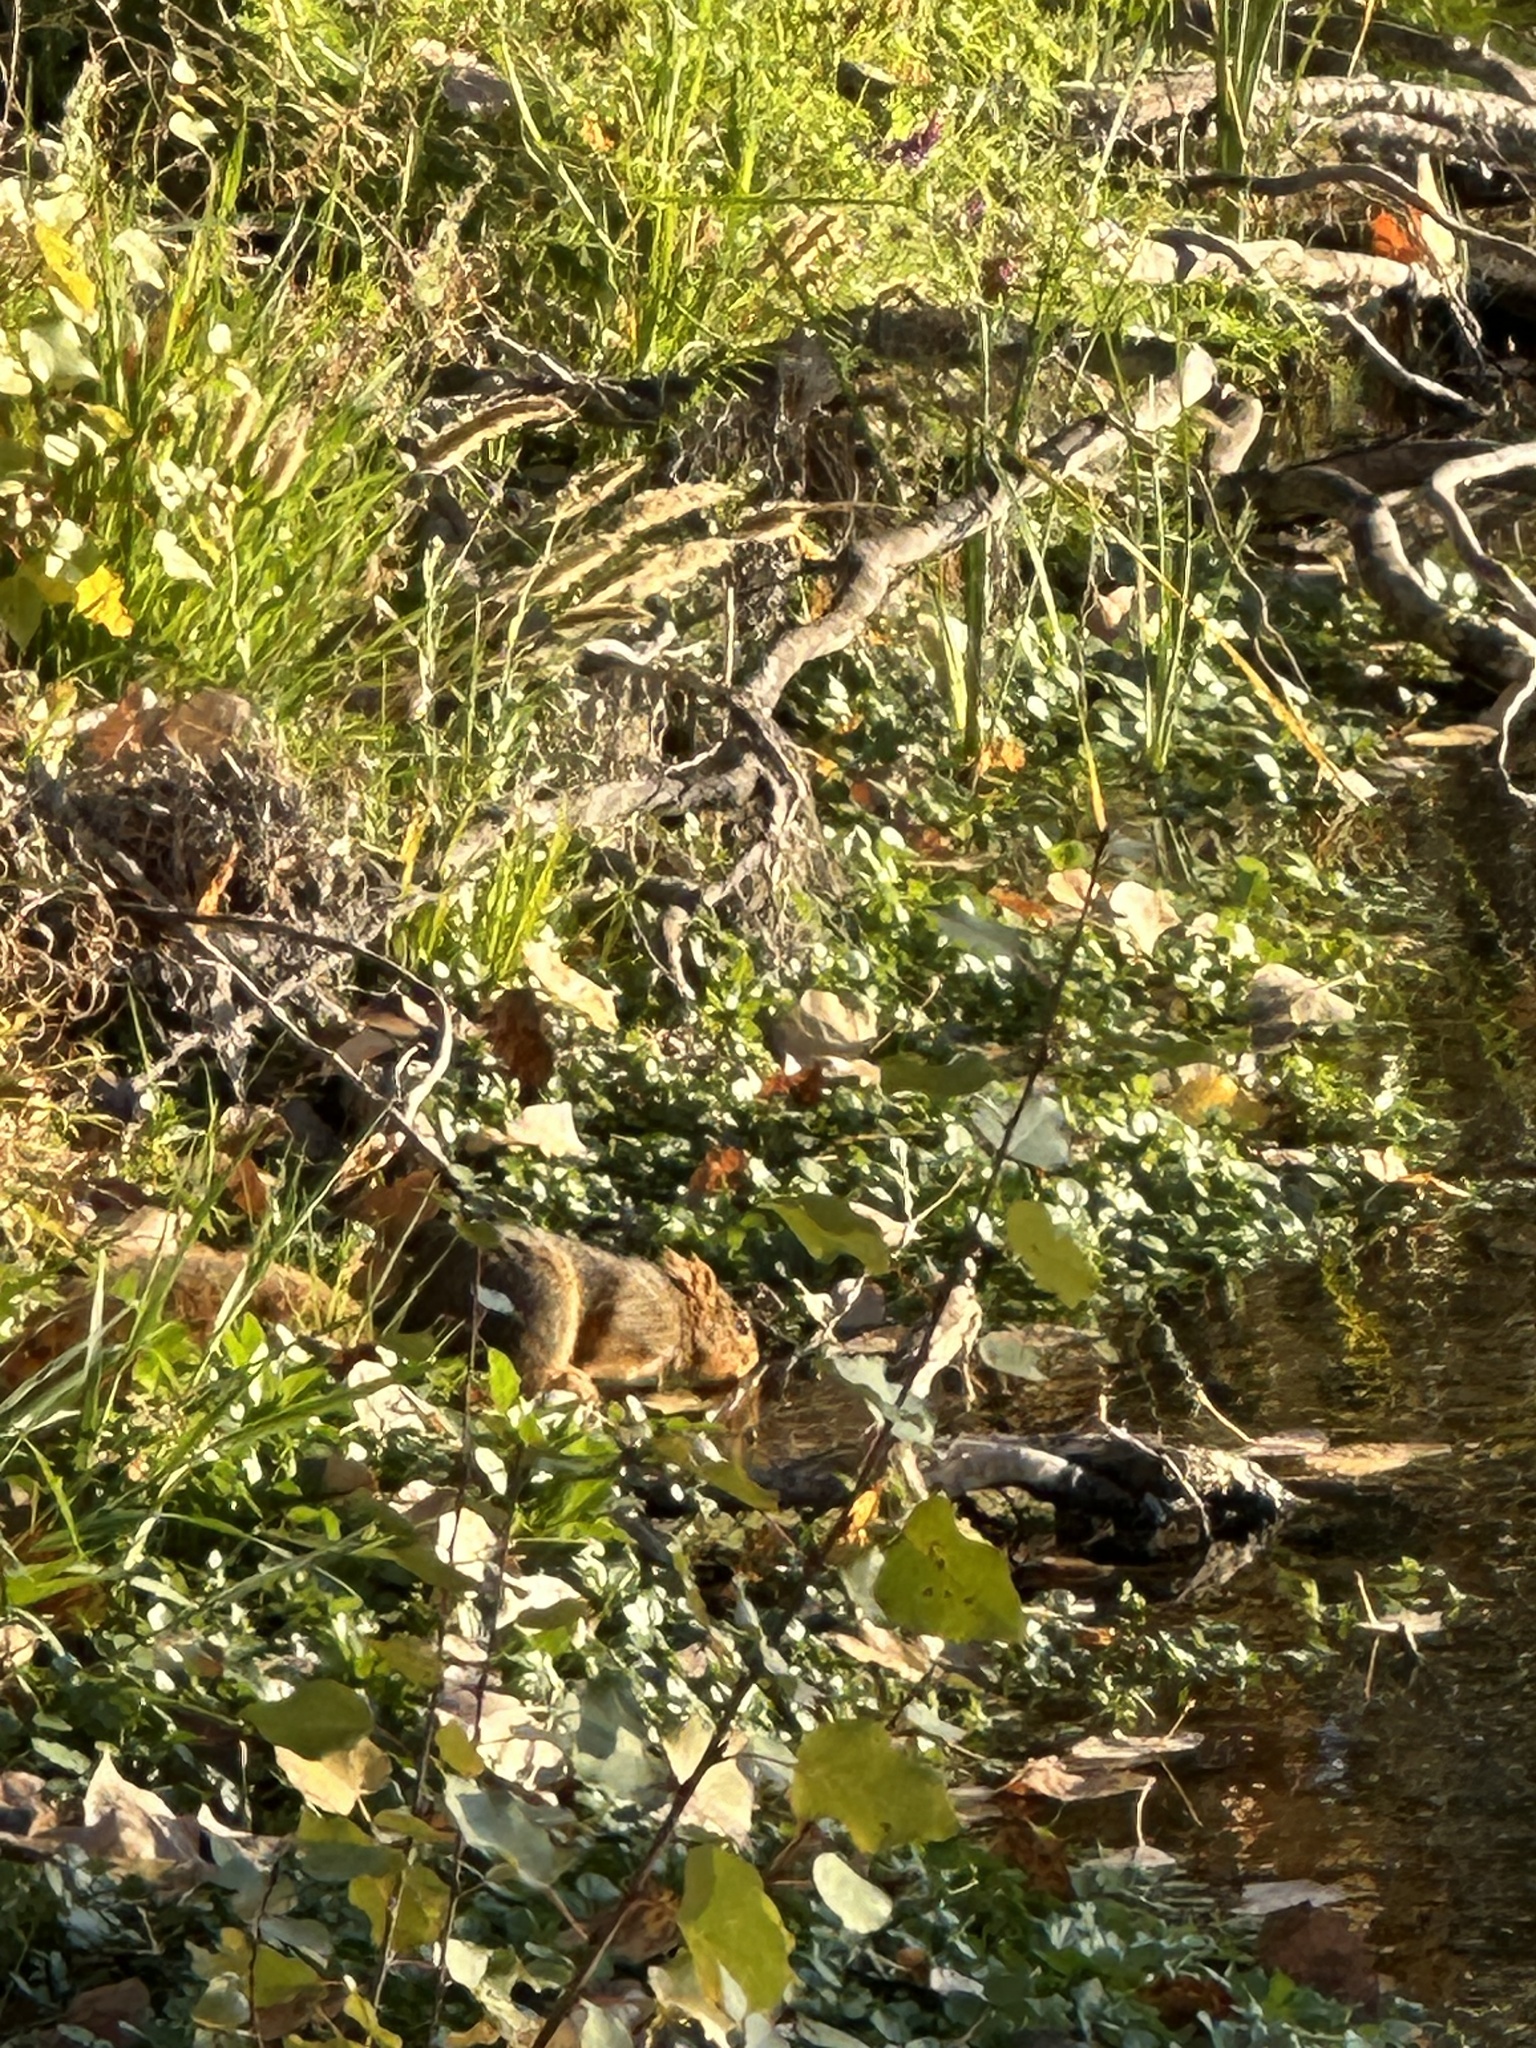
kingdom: Animalia
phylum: Chordata
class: Mammalia
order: Rodentia
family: Sciuridae
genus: Sciurus
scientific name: Sciurus niger
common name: Fox squirrel
